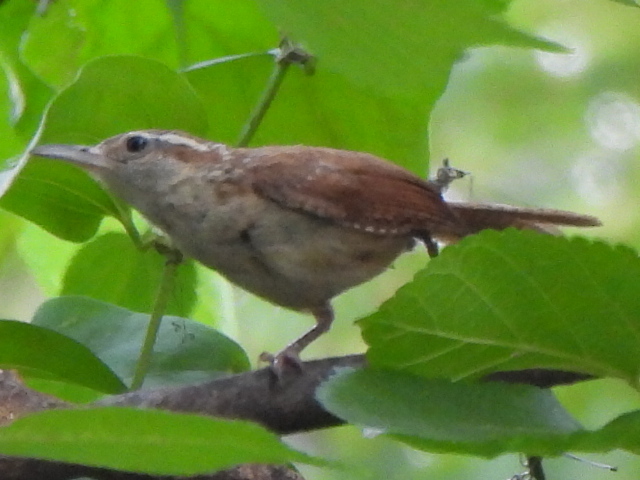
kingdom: Animalia
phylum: Chordata
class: Aves
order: Passeriformes
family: Troglodytidae
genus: Thryothorus
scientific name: Thryothorus ludovicianus
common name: Carolina wren
